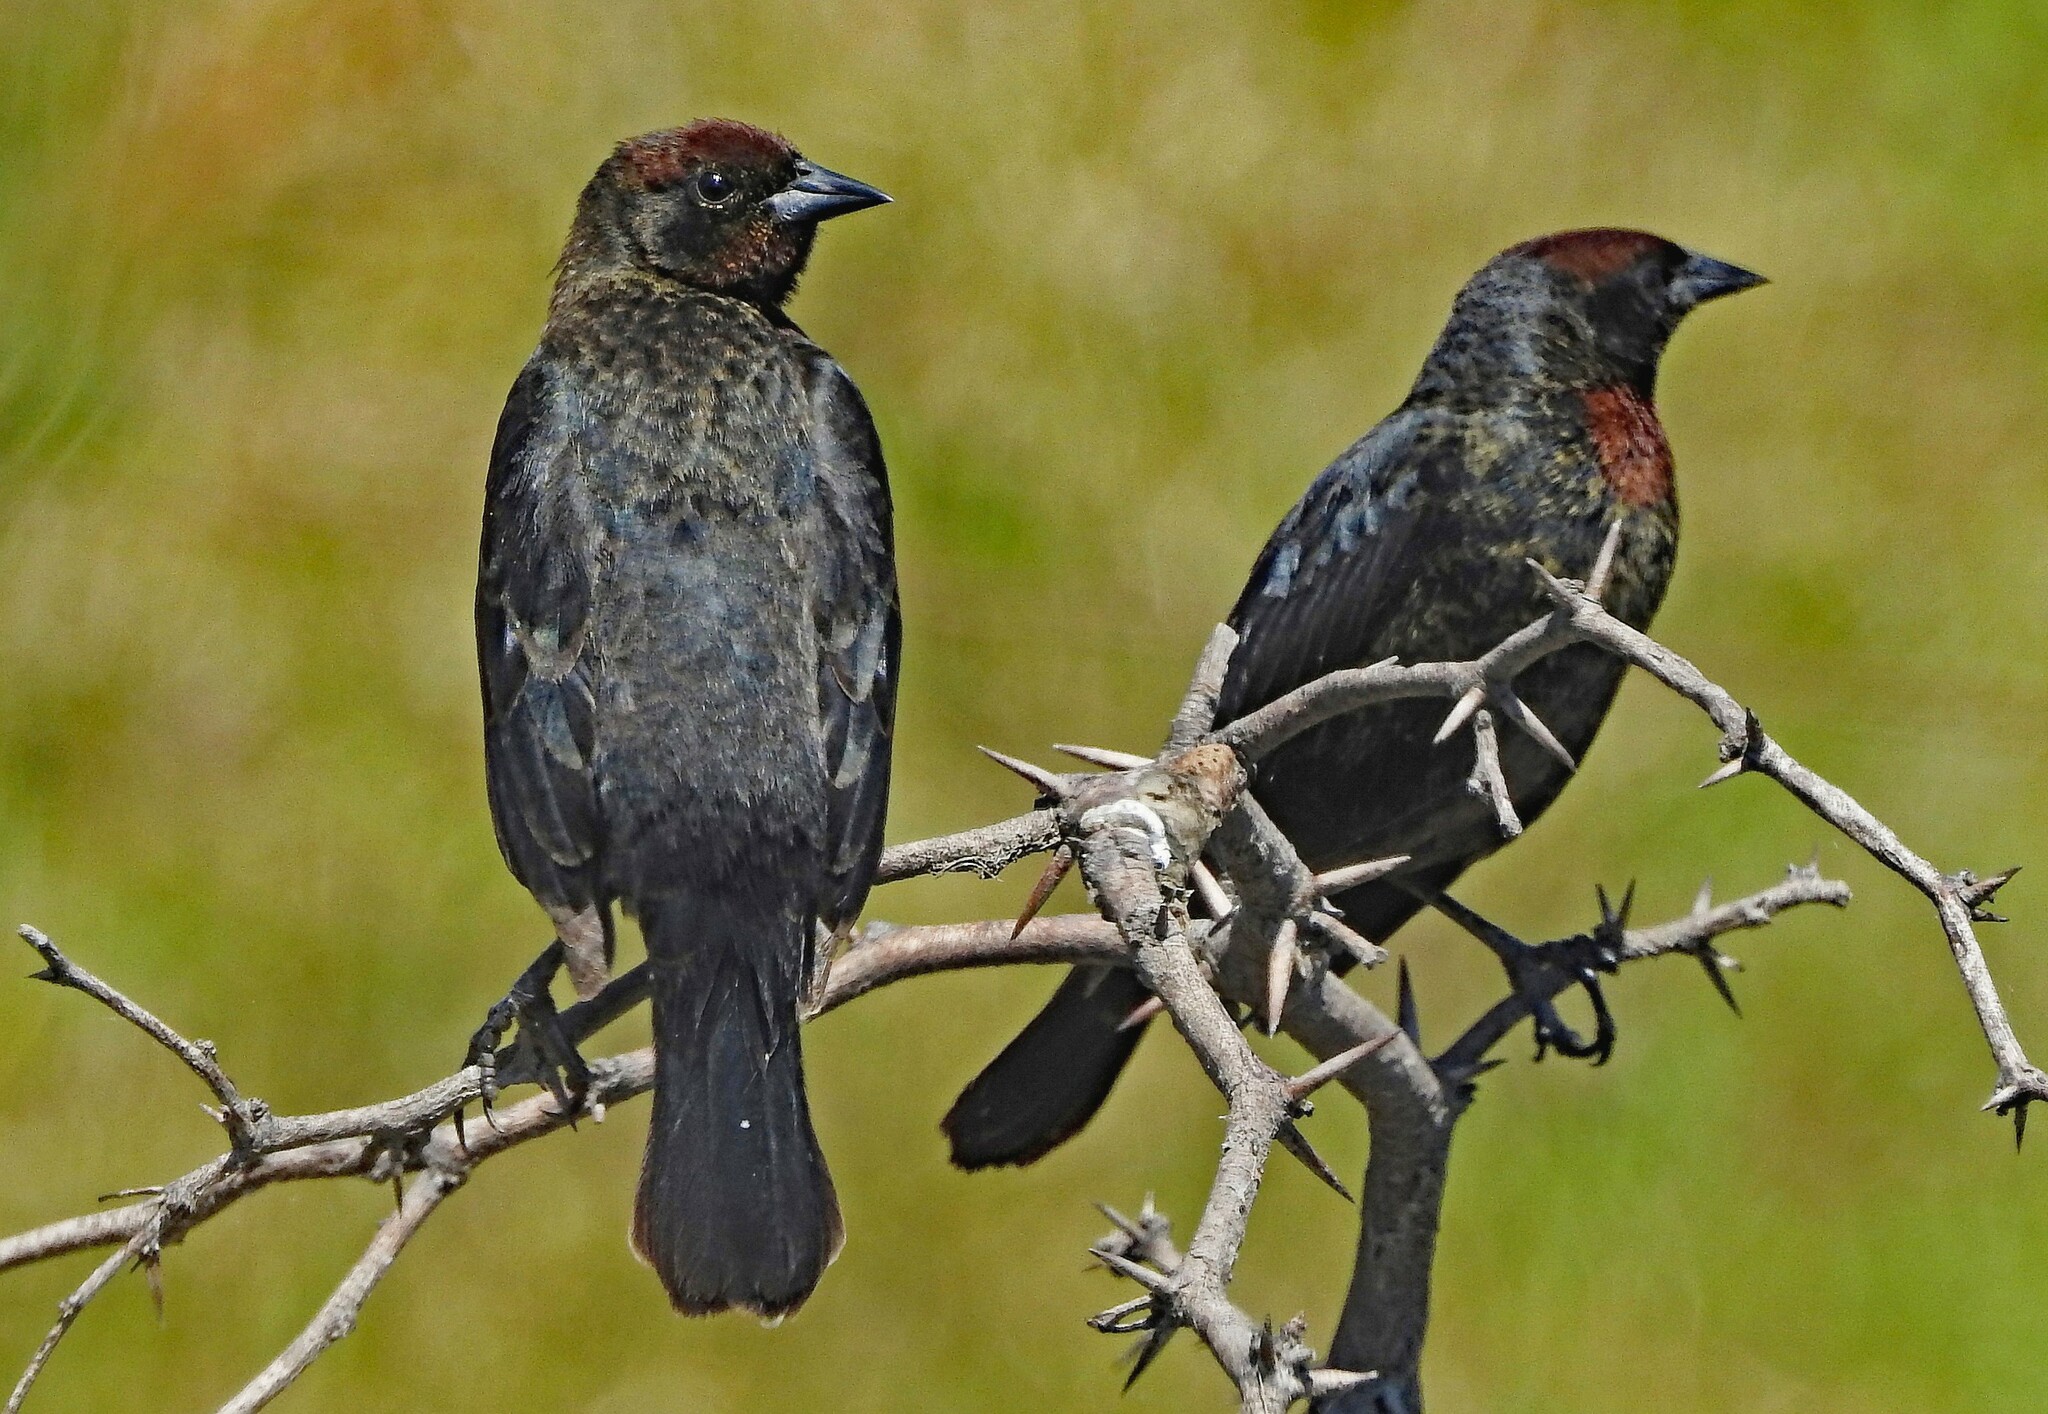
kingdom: Animalia
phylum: Chordata
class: Aves
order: Passeriformes
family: Icteridae
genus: Chrysomus
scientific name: Chrysomus ruficapillus
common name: Chestnut-capped blackbird
